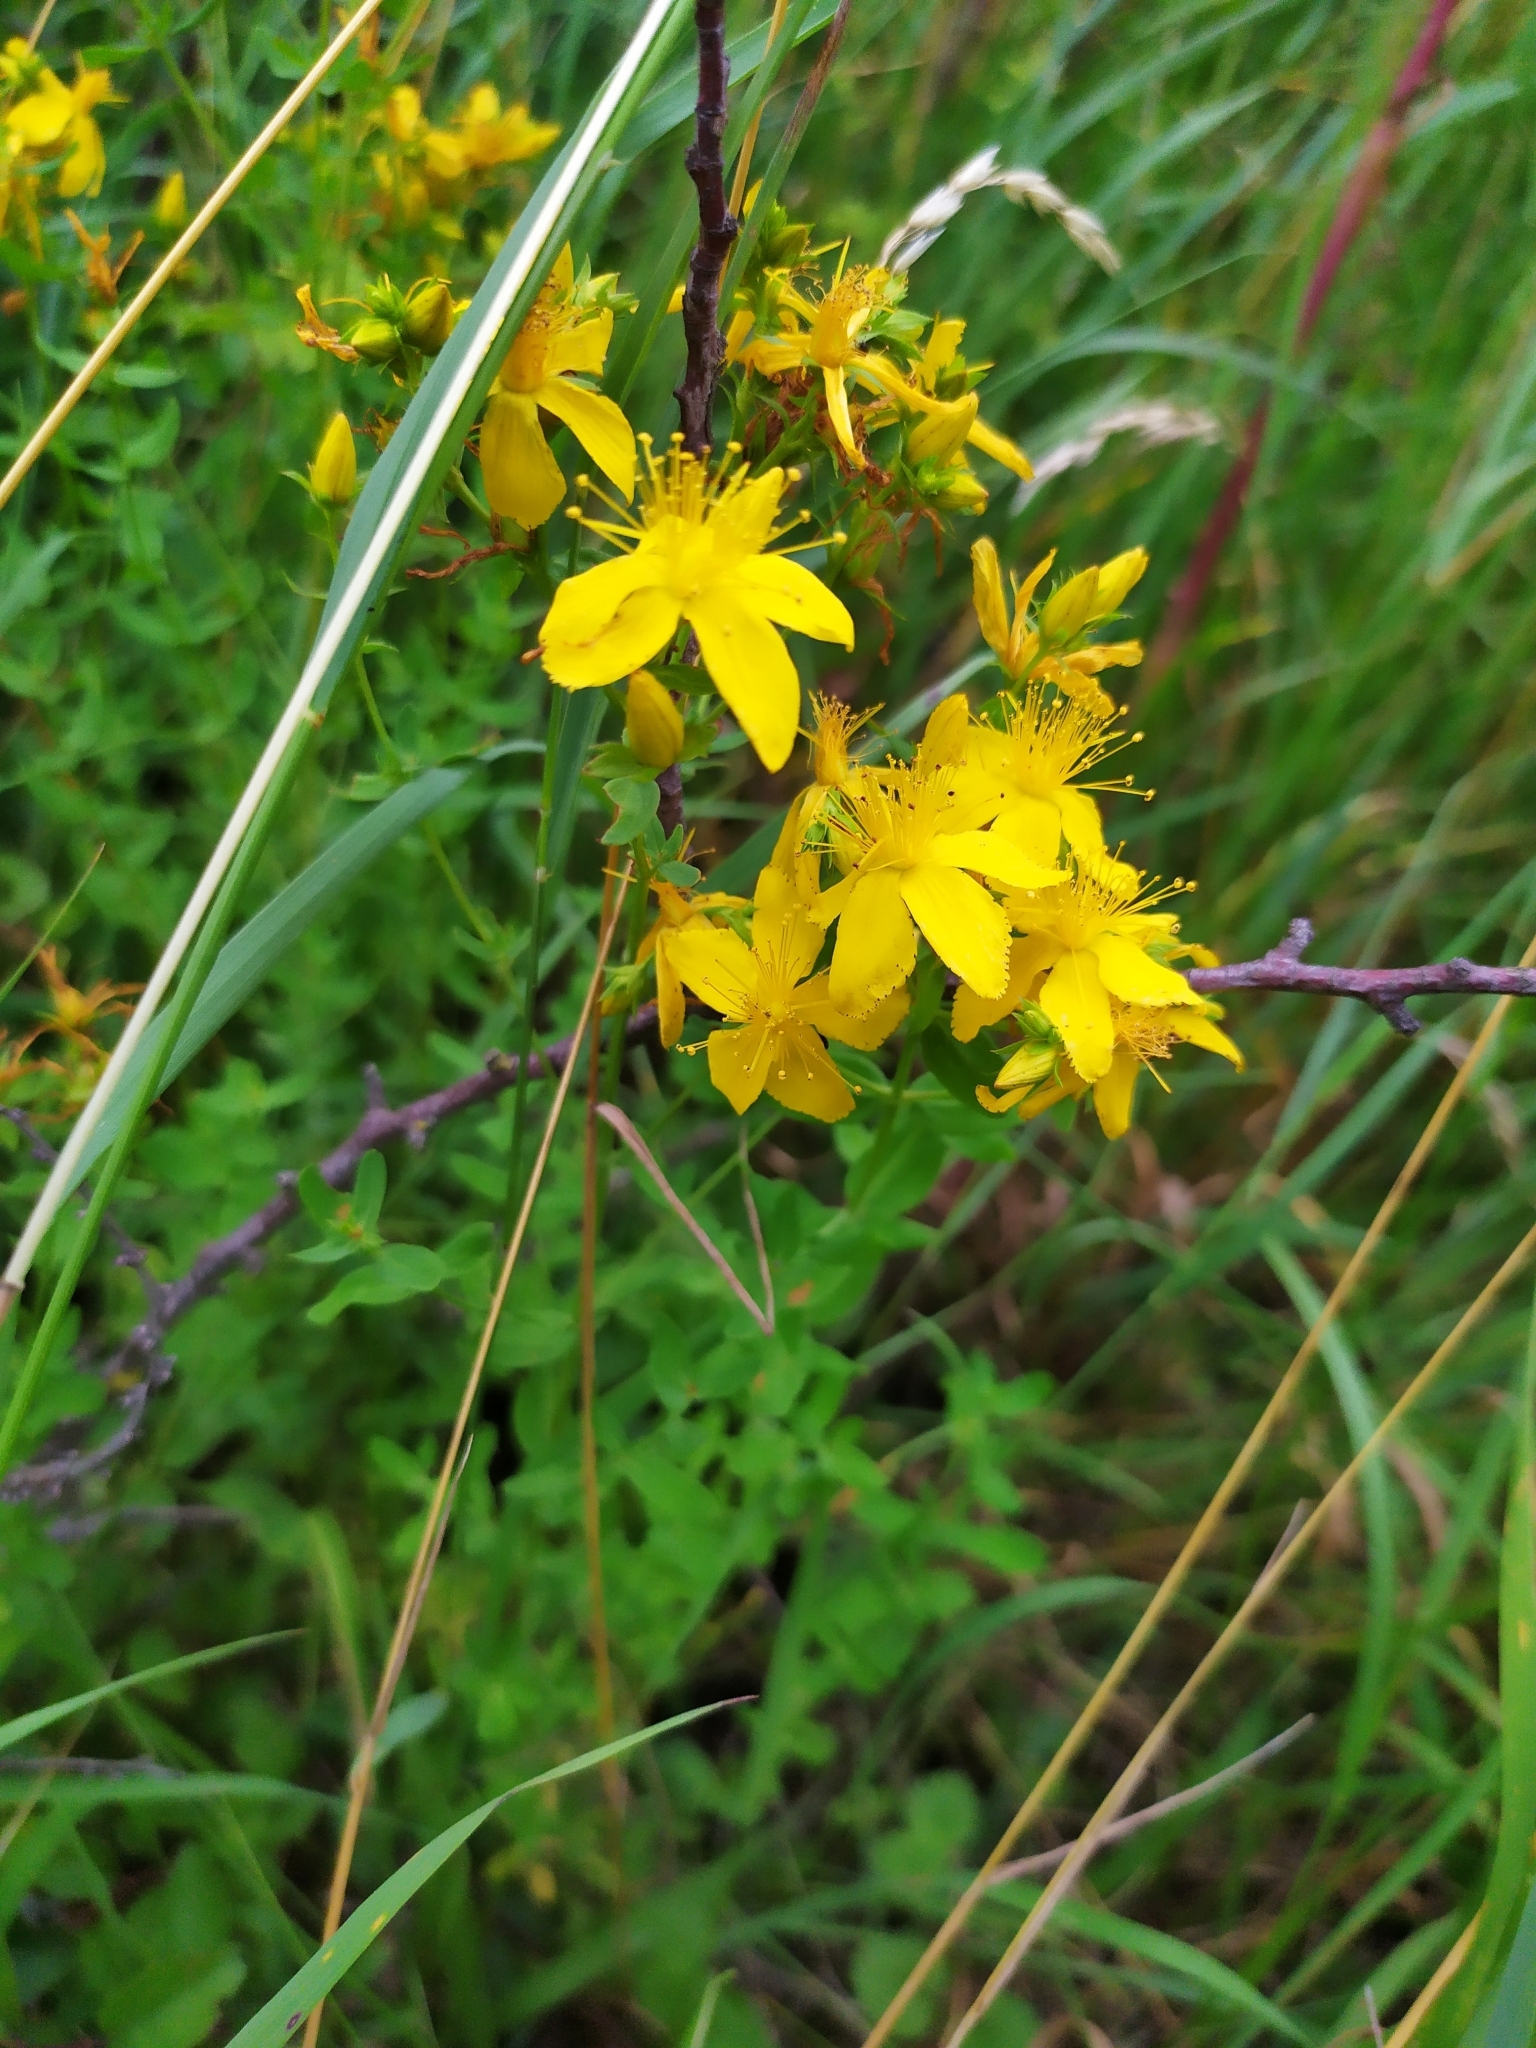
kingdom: Plantae
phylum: Tracheophyta
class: Magnoliopsida
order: Malpighiales
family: Hypericaceae
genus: Hypericum
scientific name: Hypericum perforatum
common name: Common st. johnswort
